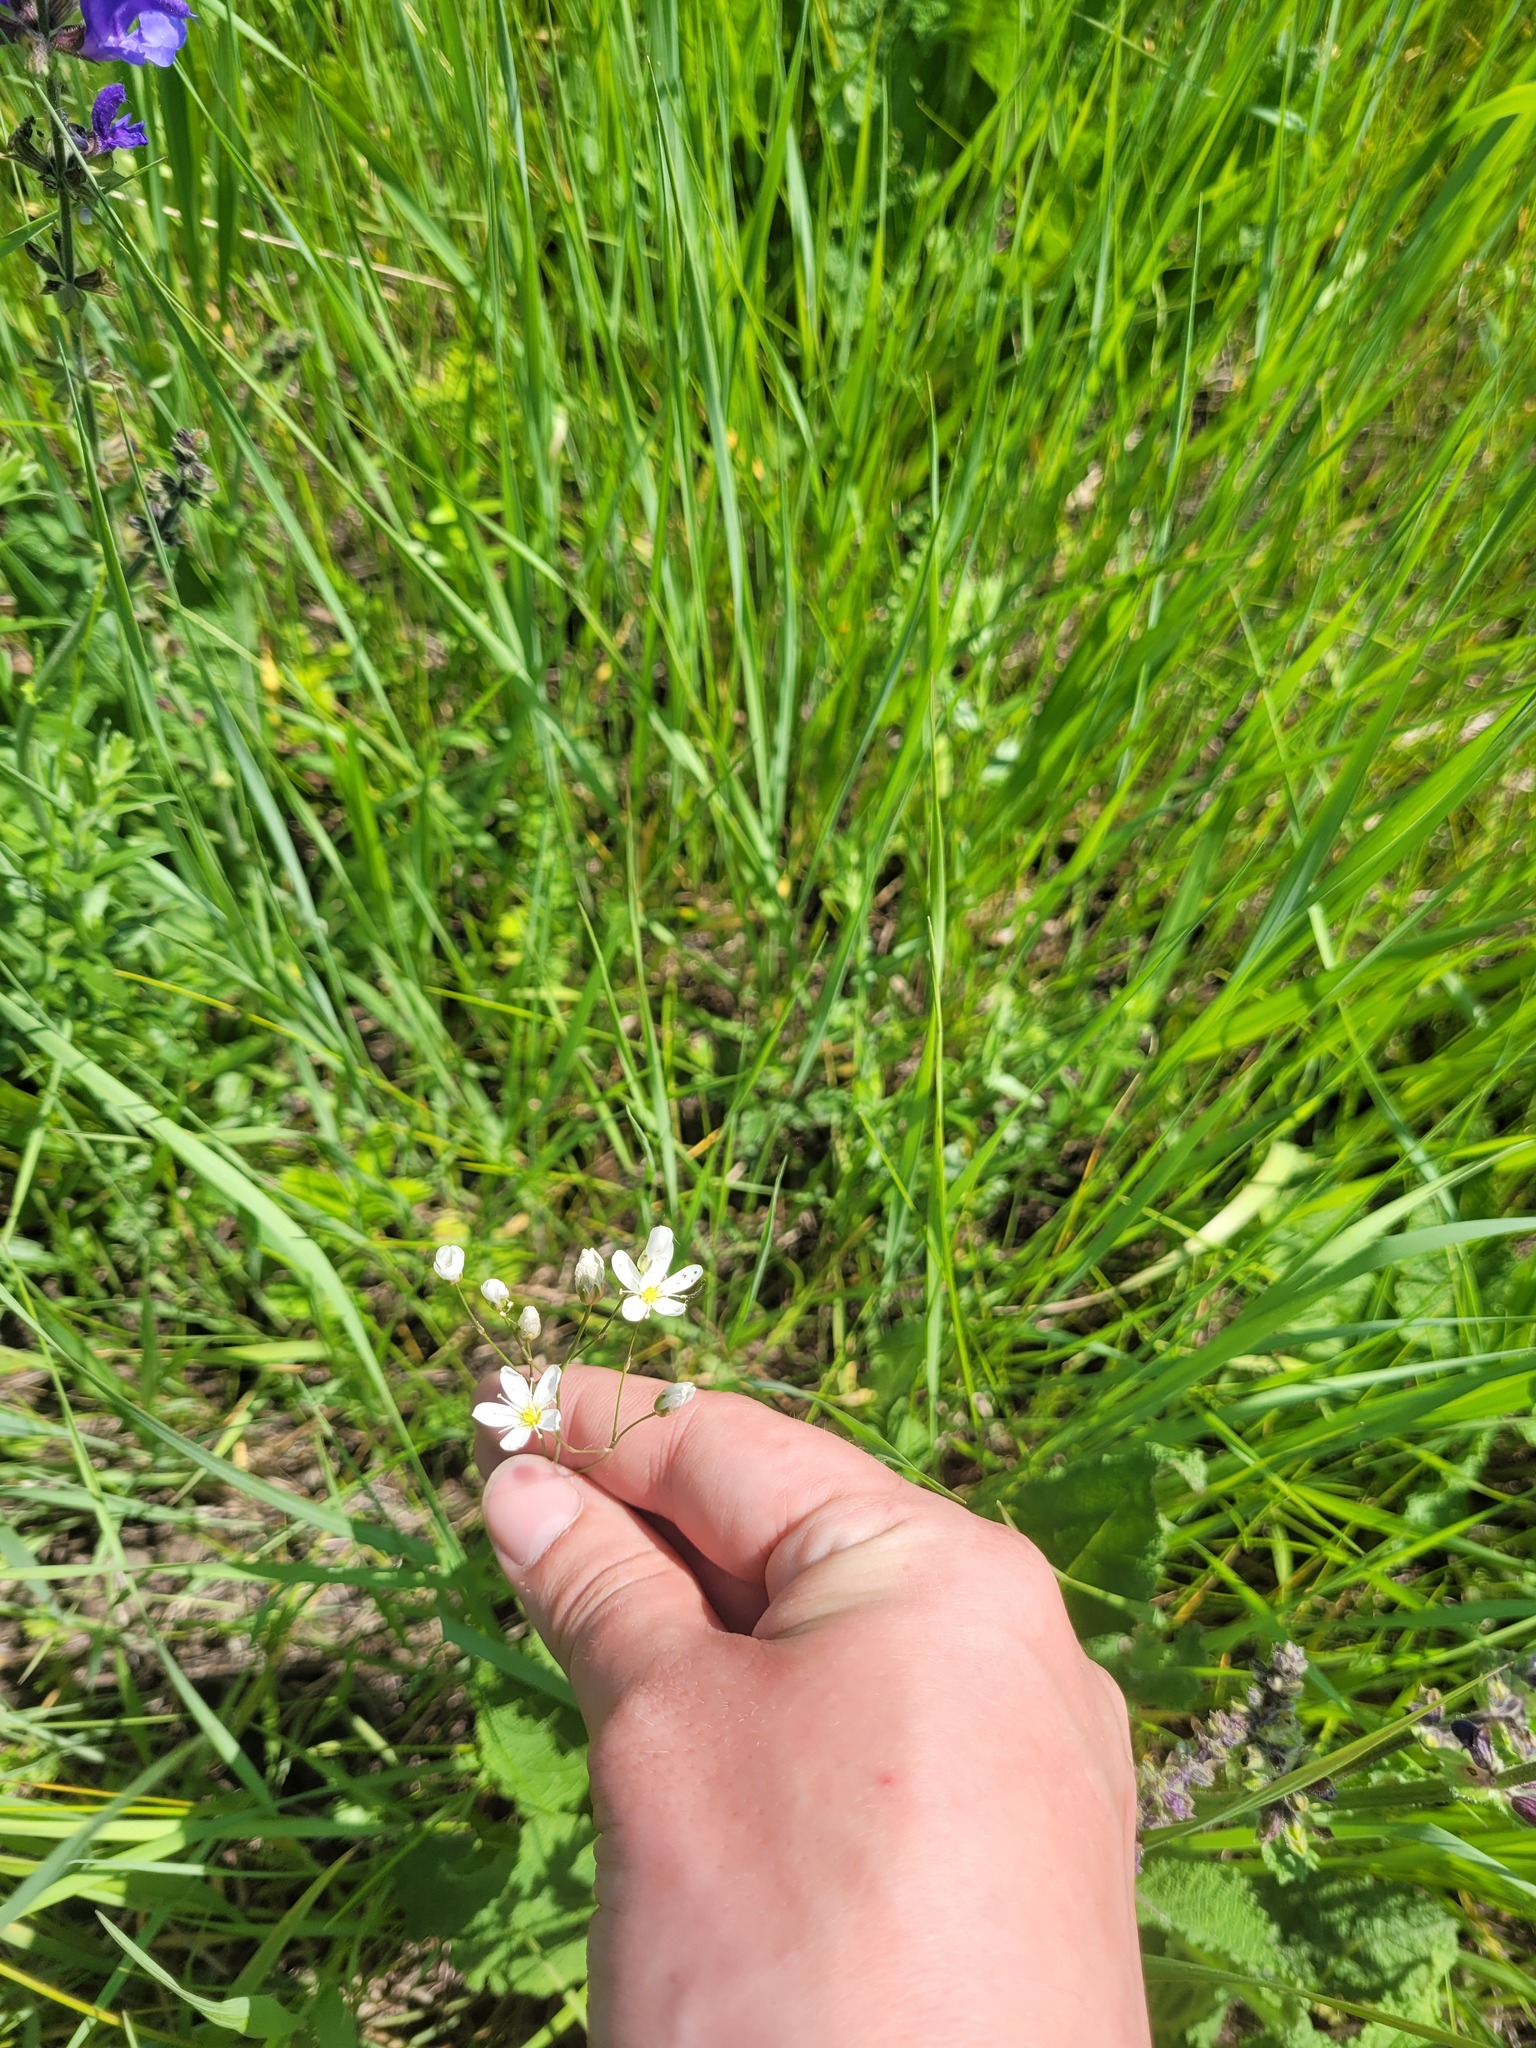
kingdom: Plantae
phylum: Tracheophyta
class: Magnoliopsida
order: Caryophyllales
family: Caryophyllaceae
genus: Eremogone
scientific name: Eremogone saxatilis
